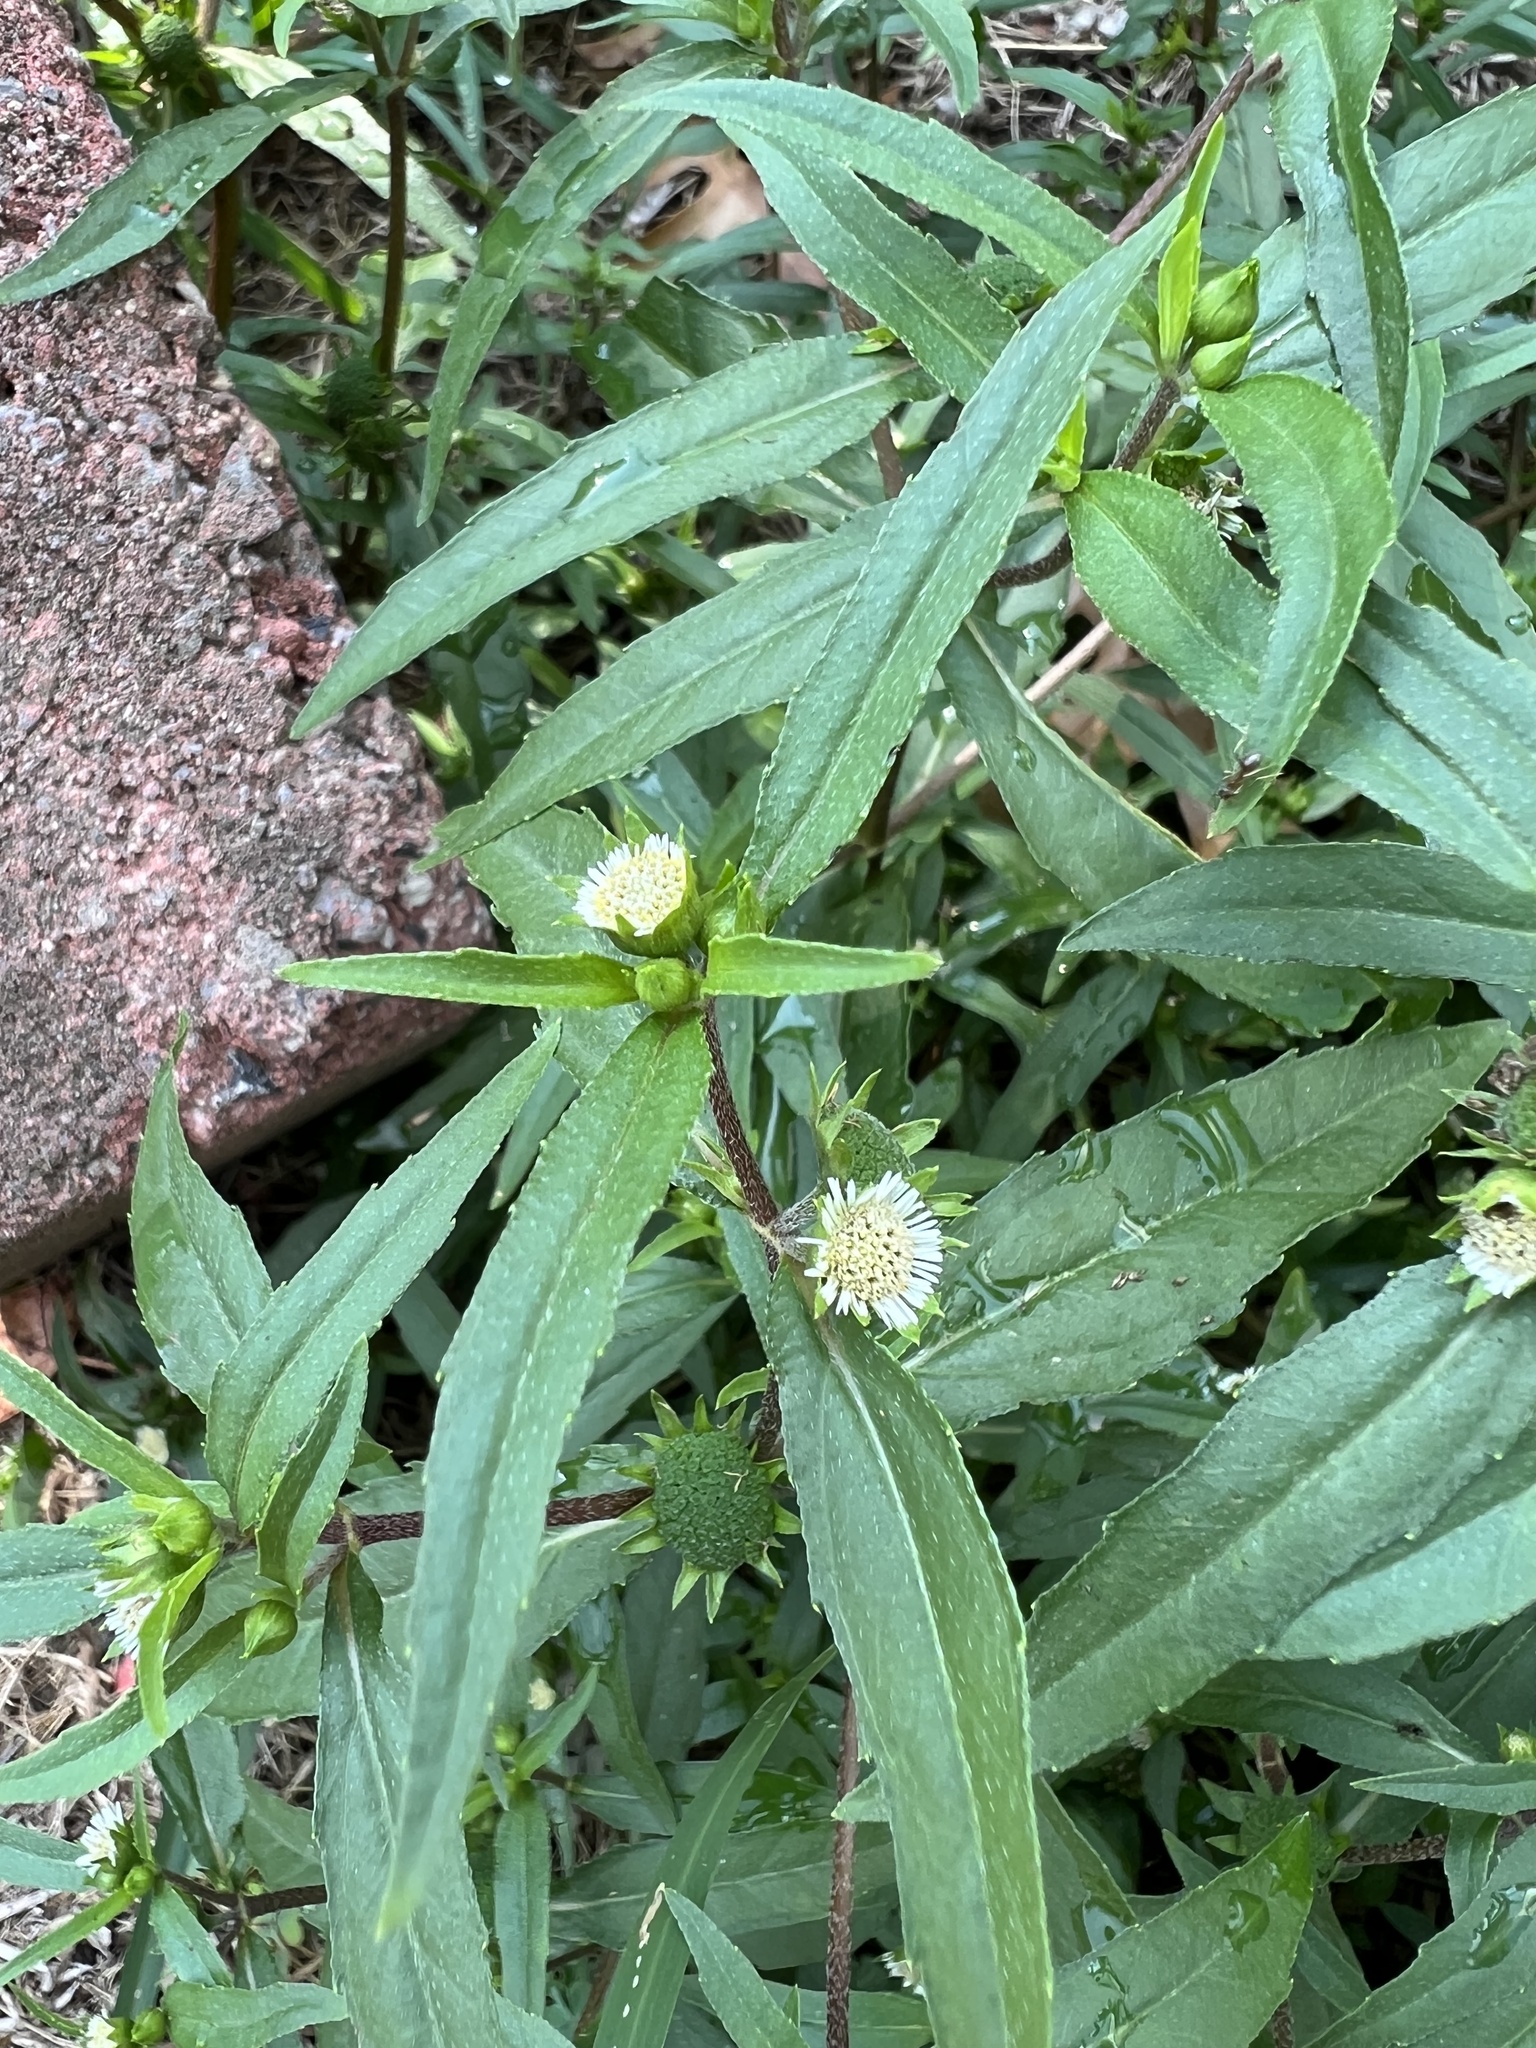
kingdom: Plantae
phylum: Tracheophyta
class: Magnoliopsida
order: Asterales
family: Asteraceae
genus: Eclipta
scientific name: Eclipta prostrata
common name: False daisy
